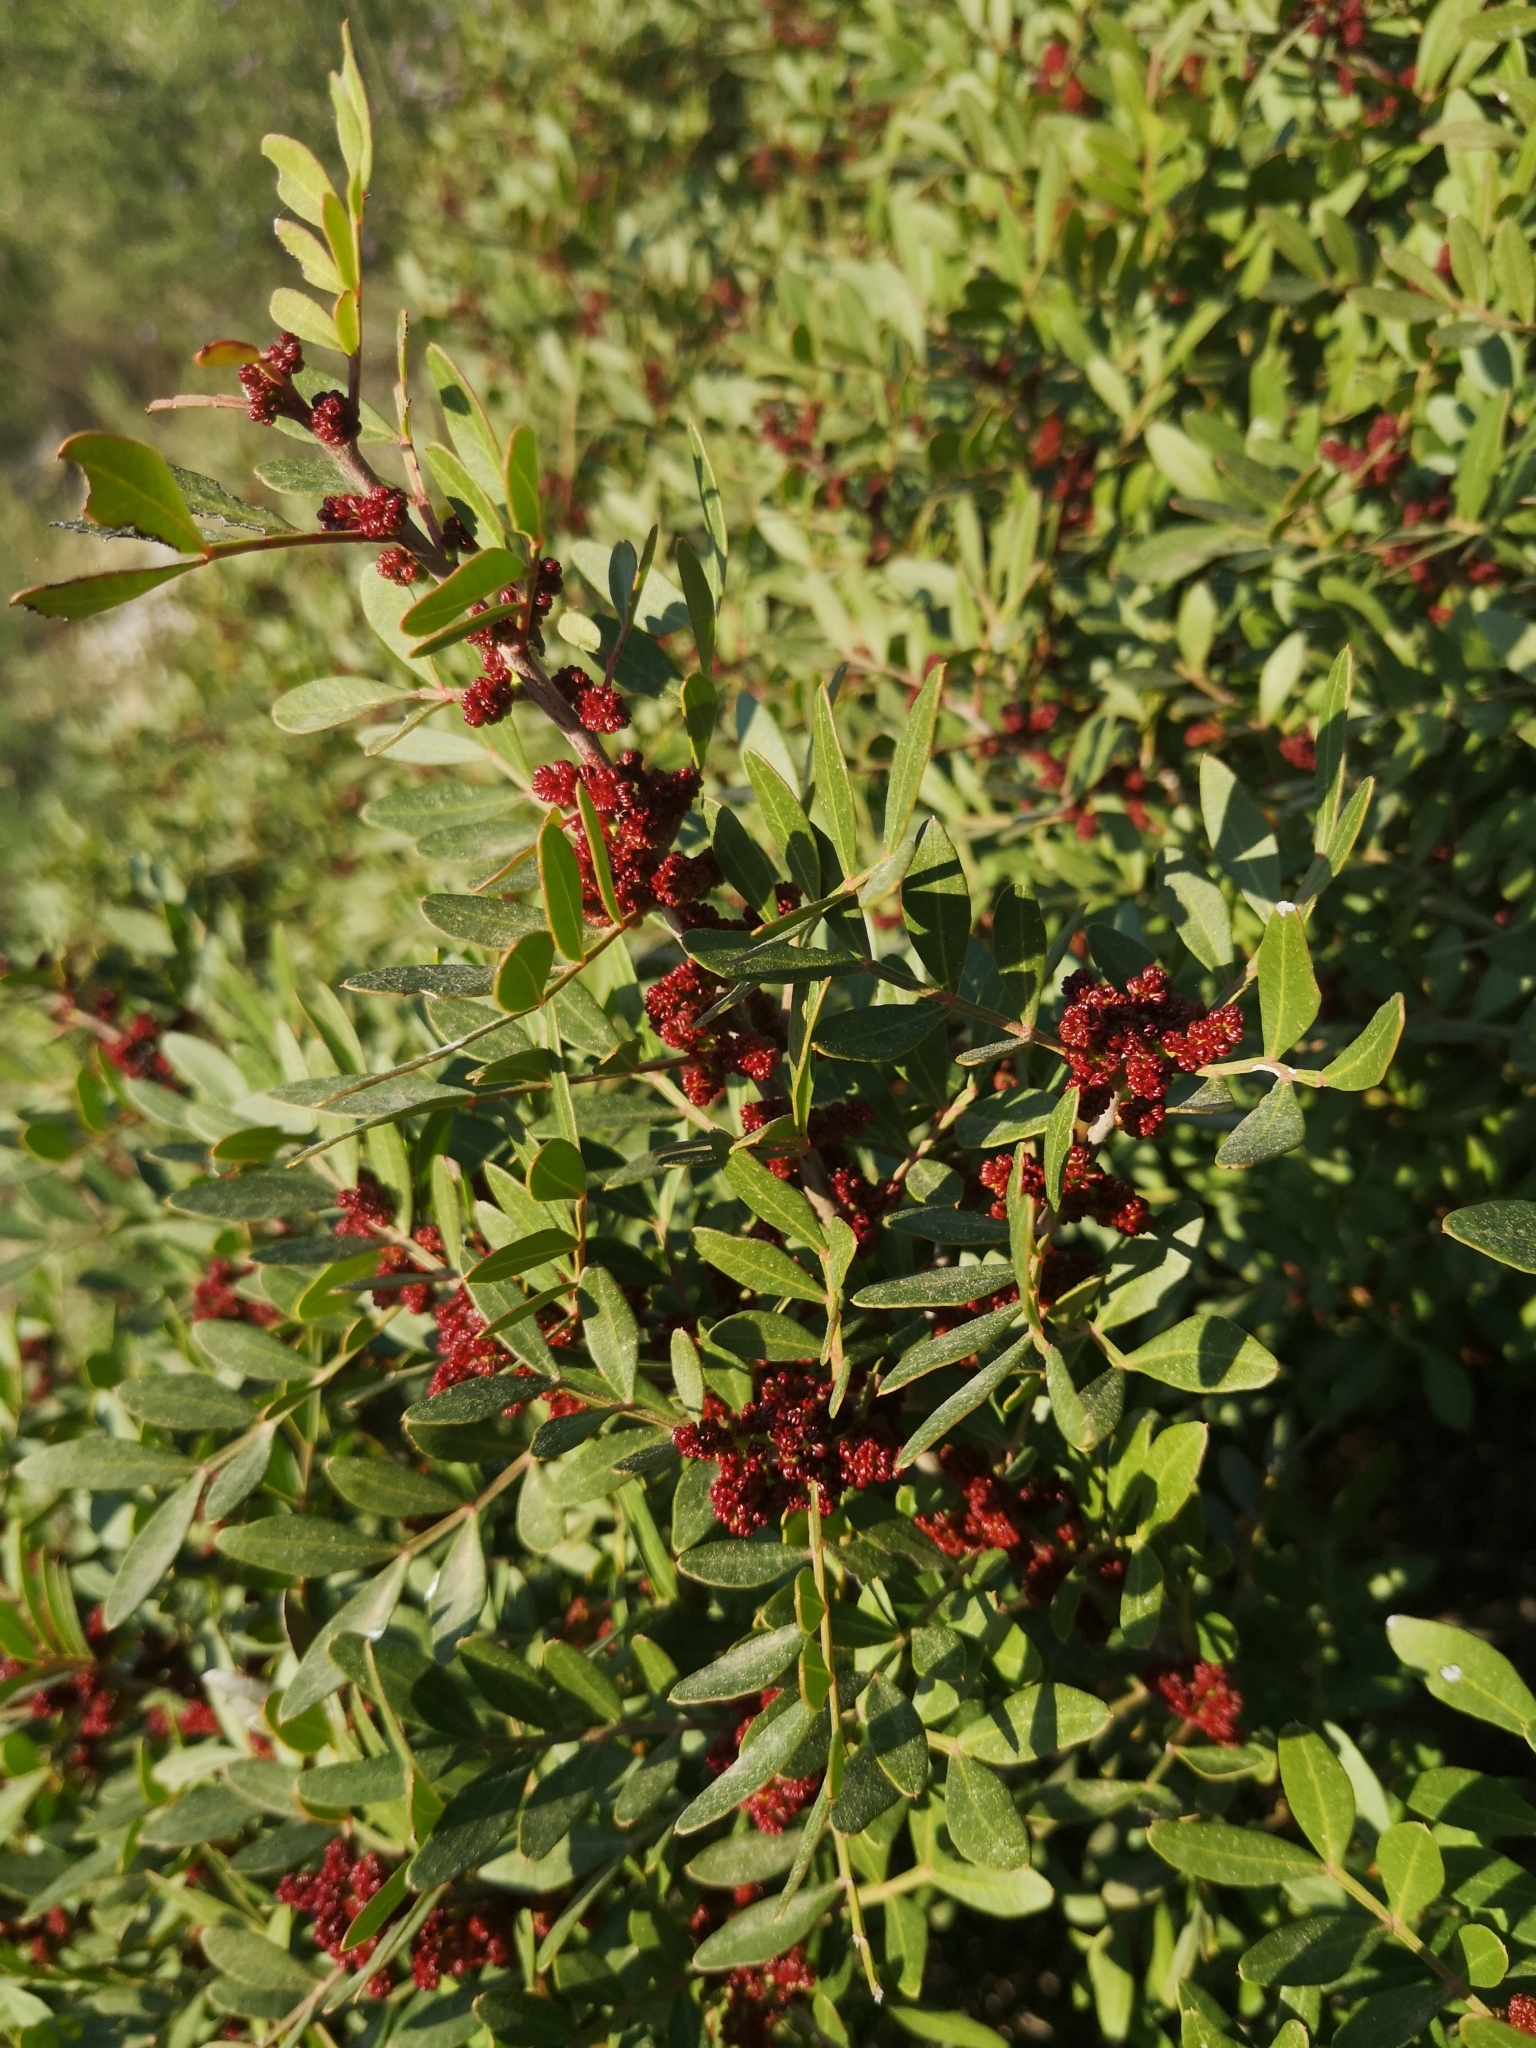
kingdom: Plantae
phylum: Tracheophyta
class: Magnoliopsida
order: Sapindales
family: Anacardiaceae
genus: Pistacia
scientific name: Pistacia lentiscus
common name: Lentisk
